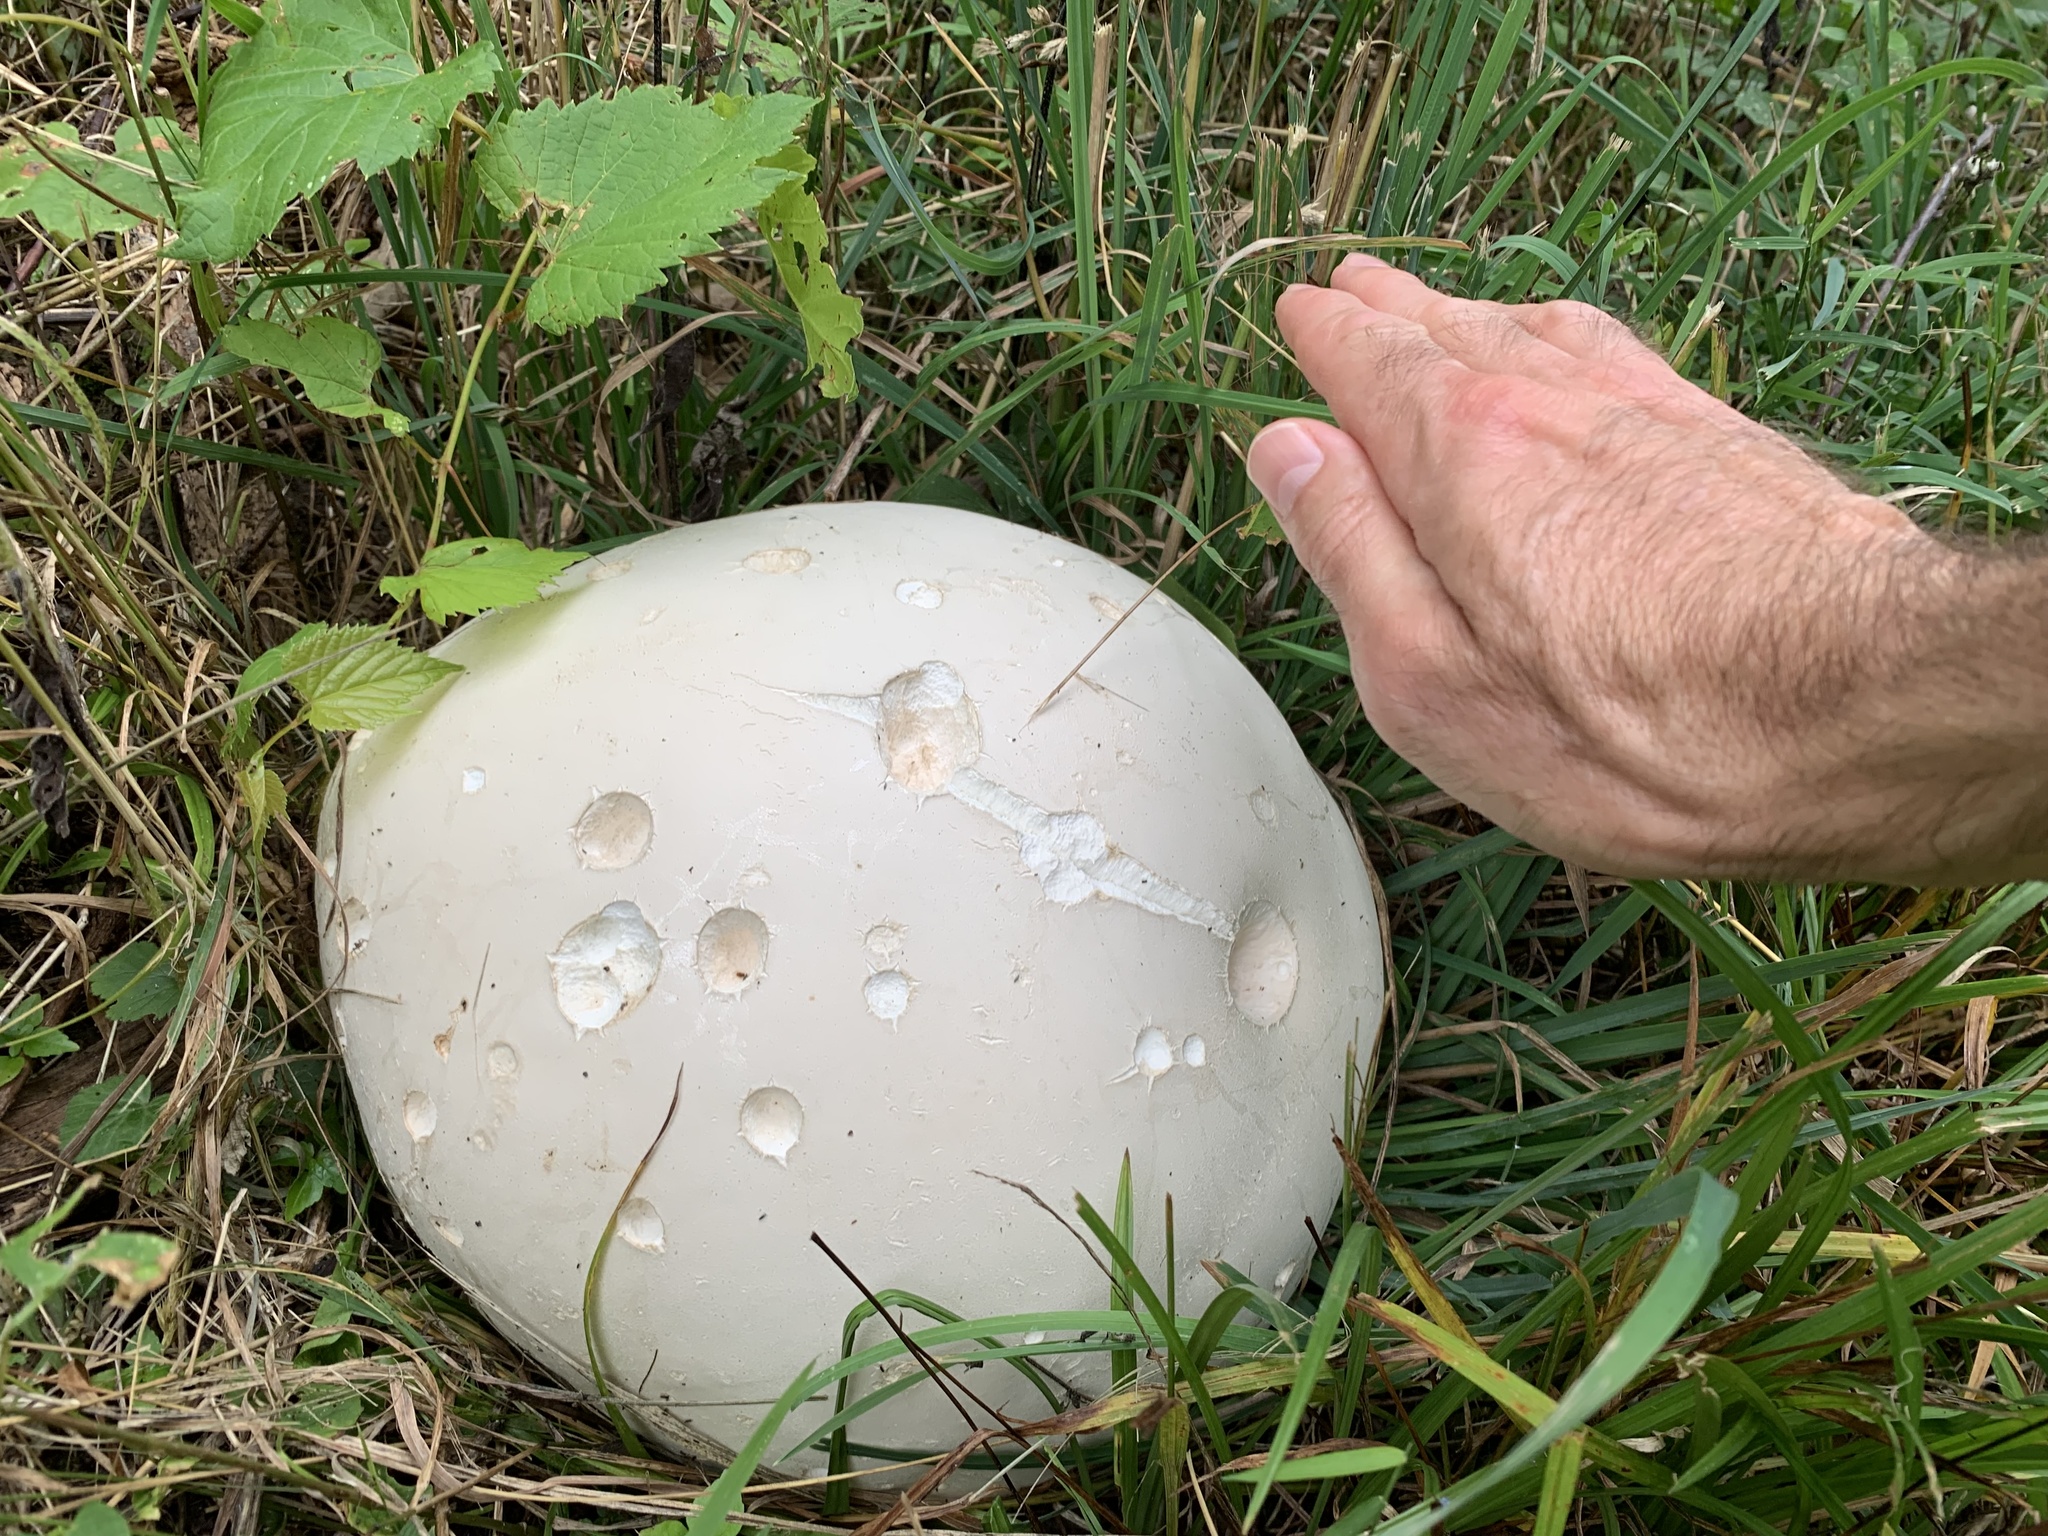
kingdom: Fungi
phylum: Basidiomycota
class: Agaricomycetes
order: Agaricales
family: Lycoperdaceae
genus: Calvatia
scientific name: Calvatia gigantea
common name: Giant puffball
